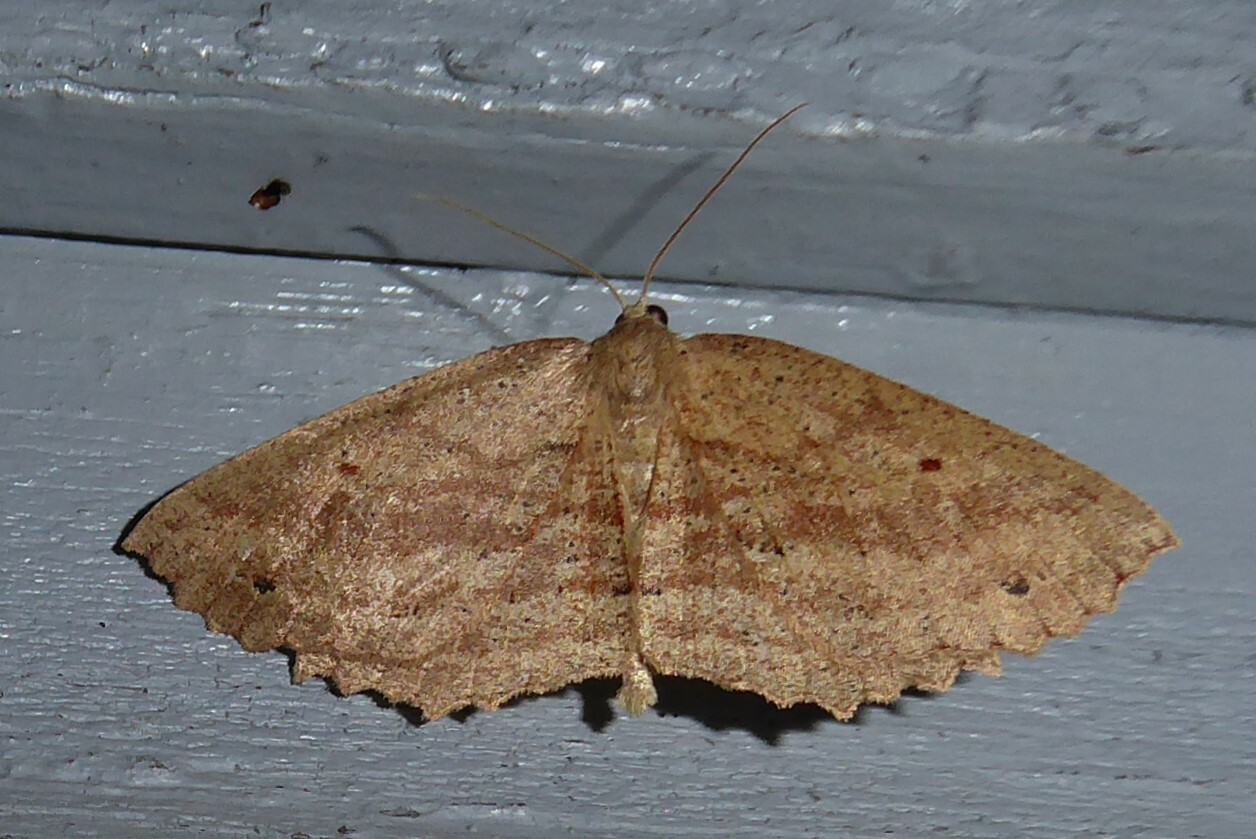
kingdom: Animalia
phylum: Arthropoda
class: Insecta
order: Lepidoptera
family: Geometridae
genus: Xyridacma
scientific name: Xyridacma veronicae
